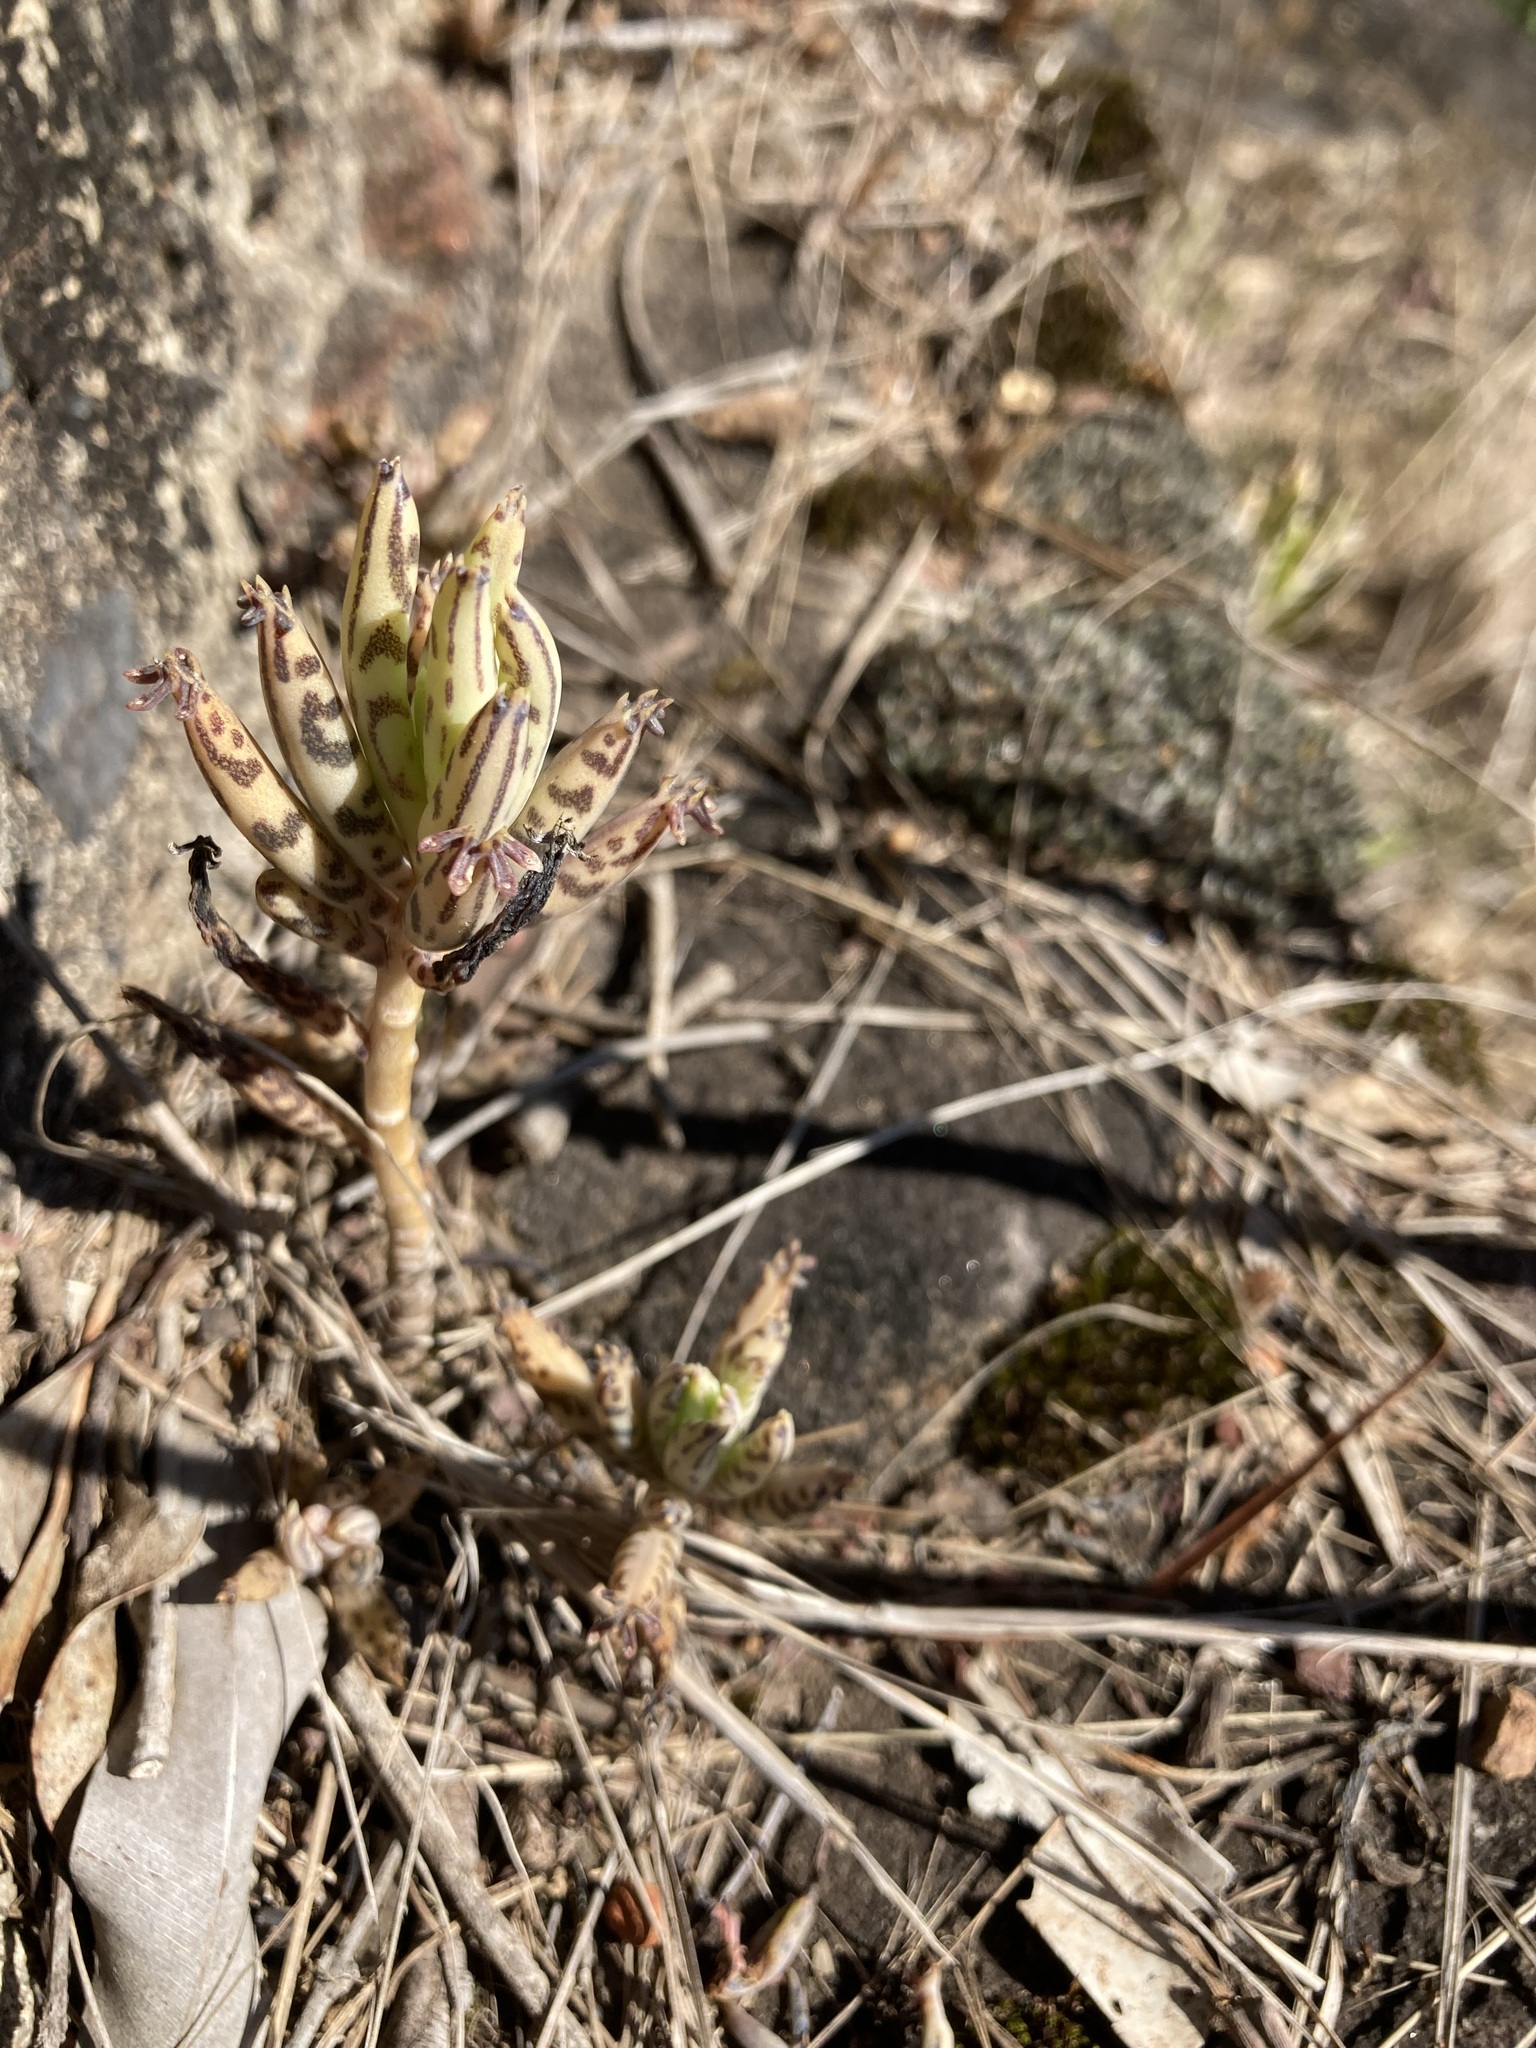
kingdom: Plantae
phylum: Tracheophyta
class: Magnoliopsida
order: Saxifragales
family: Crassulaceae
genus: Kalanchoe
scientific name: Kalanchoe delagoensis
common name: Chandelier plant
